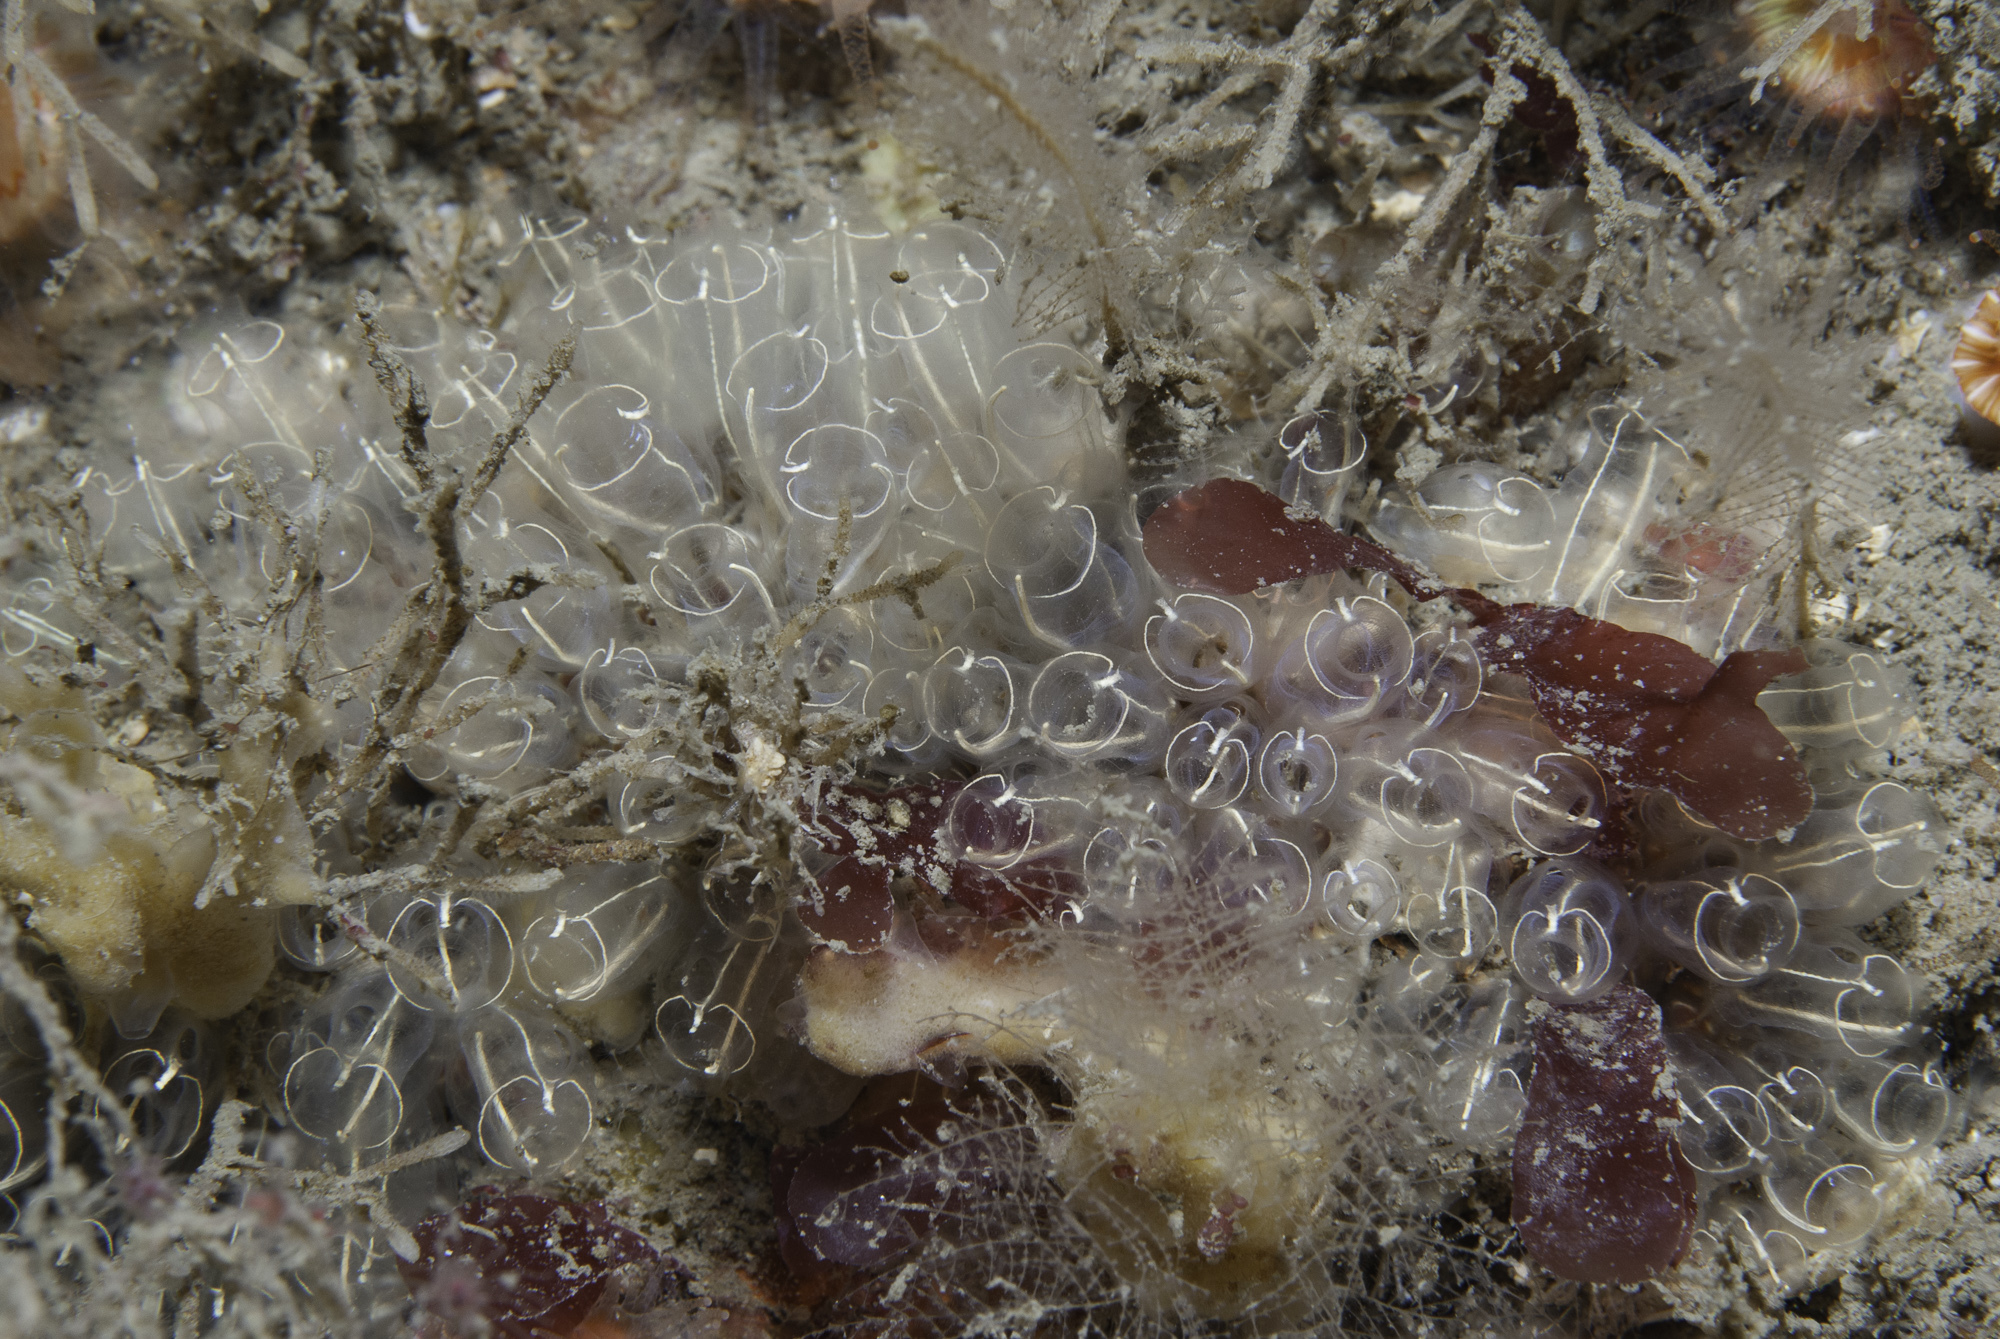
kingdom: Animalia
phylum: Chordata
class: Ascidiacea
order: Aplousobranchia
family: Clavelinidae
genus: Clavelina
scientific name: Clavelina lepadiformis
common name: Light bulb tunicate
